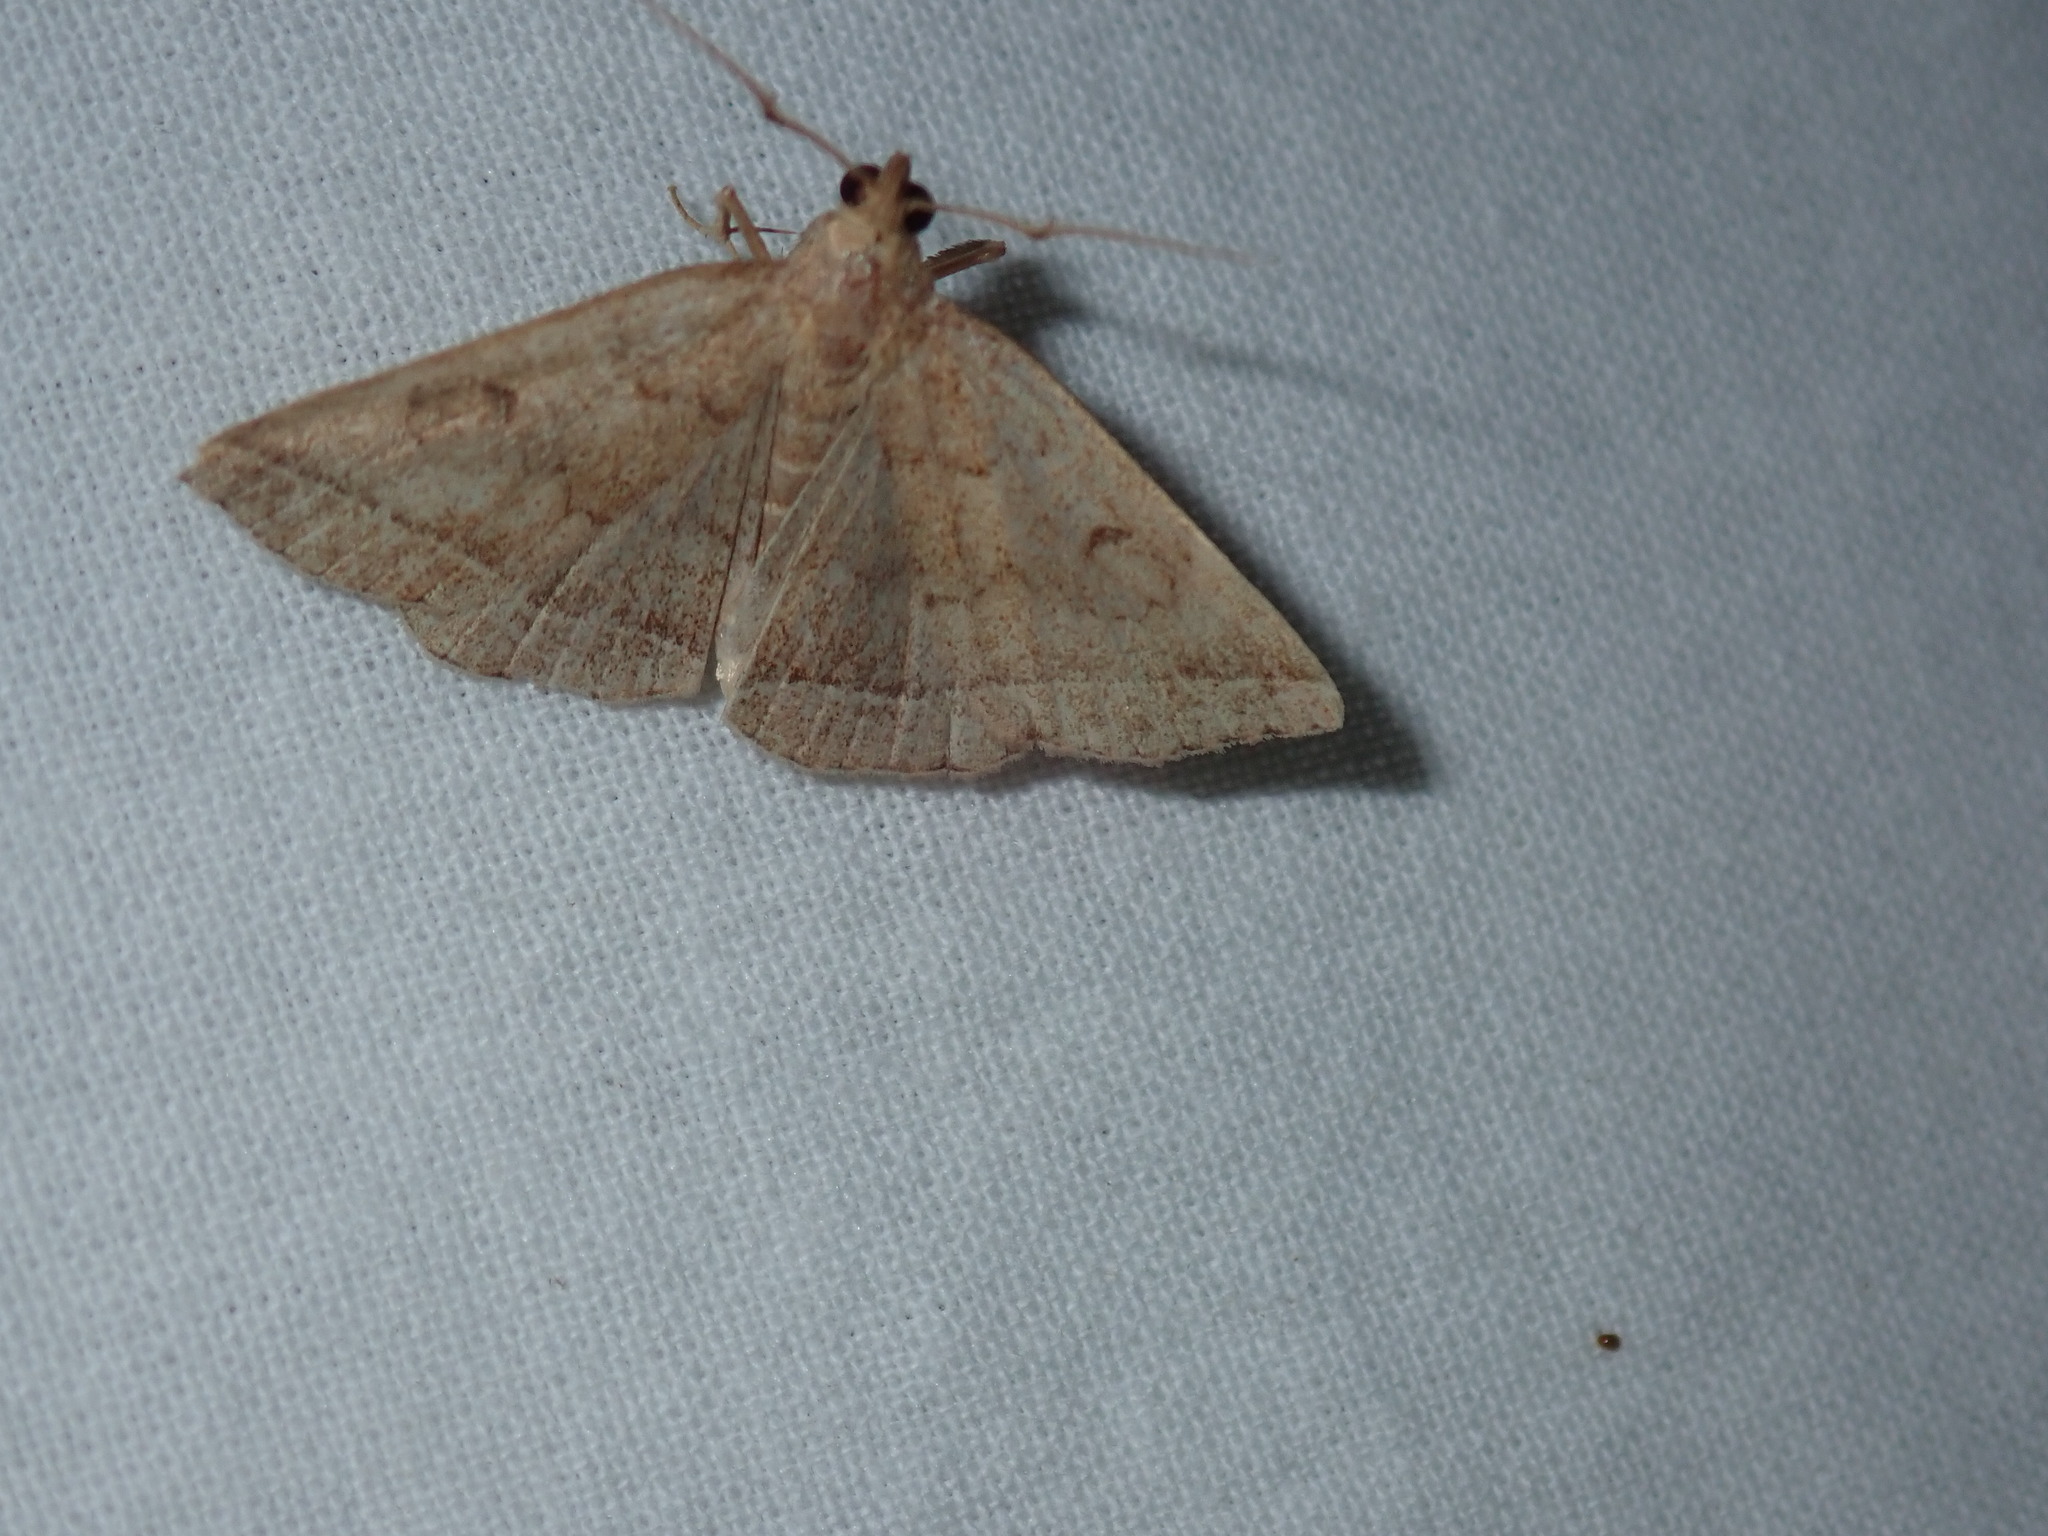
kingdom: Animalia
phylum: Arthropoda
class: Insecta
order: Lepidoptera
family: Erebidae
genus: Zanclognatha
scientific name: Zanclognatha jacchusalis
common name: Yellowish zanclognatha
